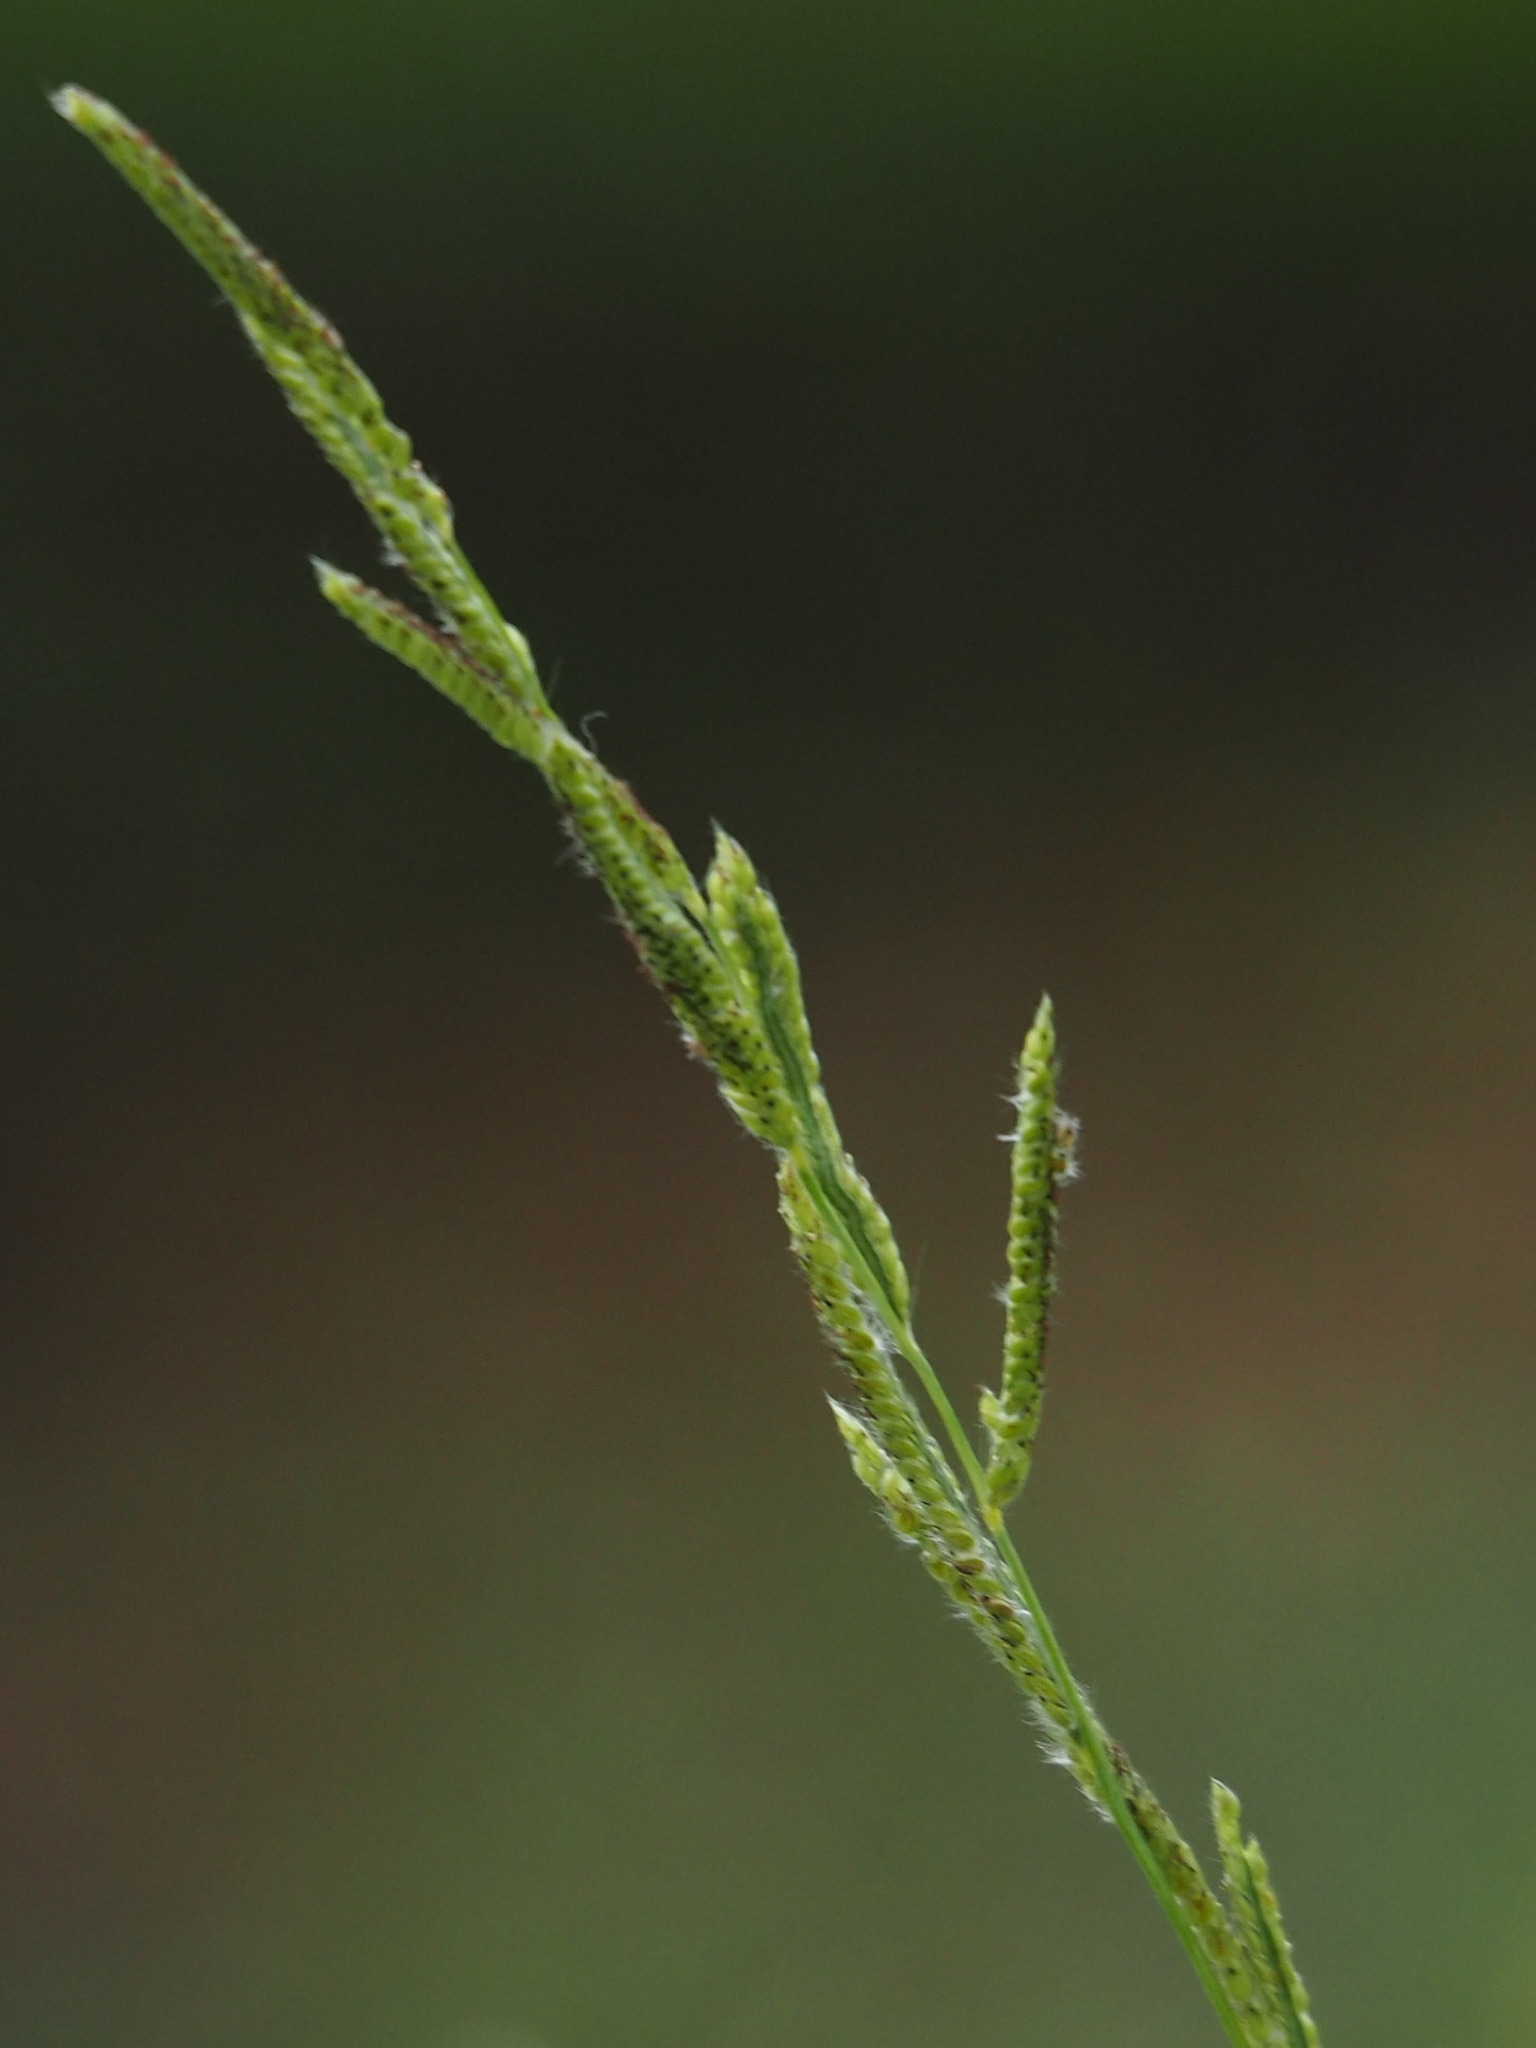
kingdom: Plantae
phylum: Tracheophyta
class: Liliopsida
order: Poales
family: Poaceae
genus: Paspalum
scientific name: Paspalum urvillei
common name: Vasey's grass
